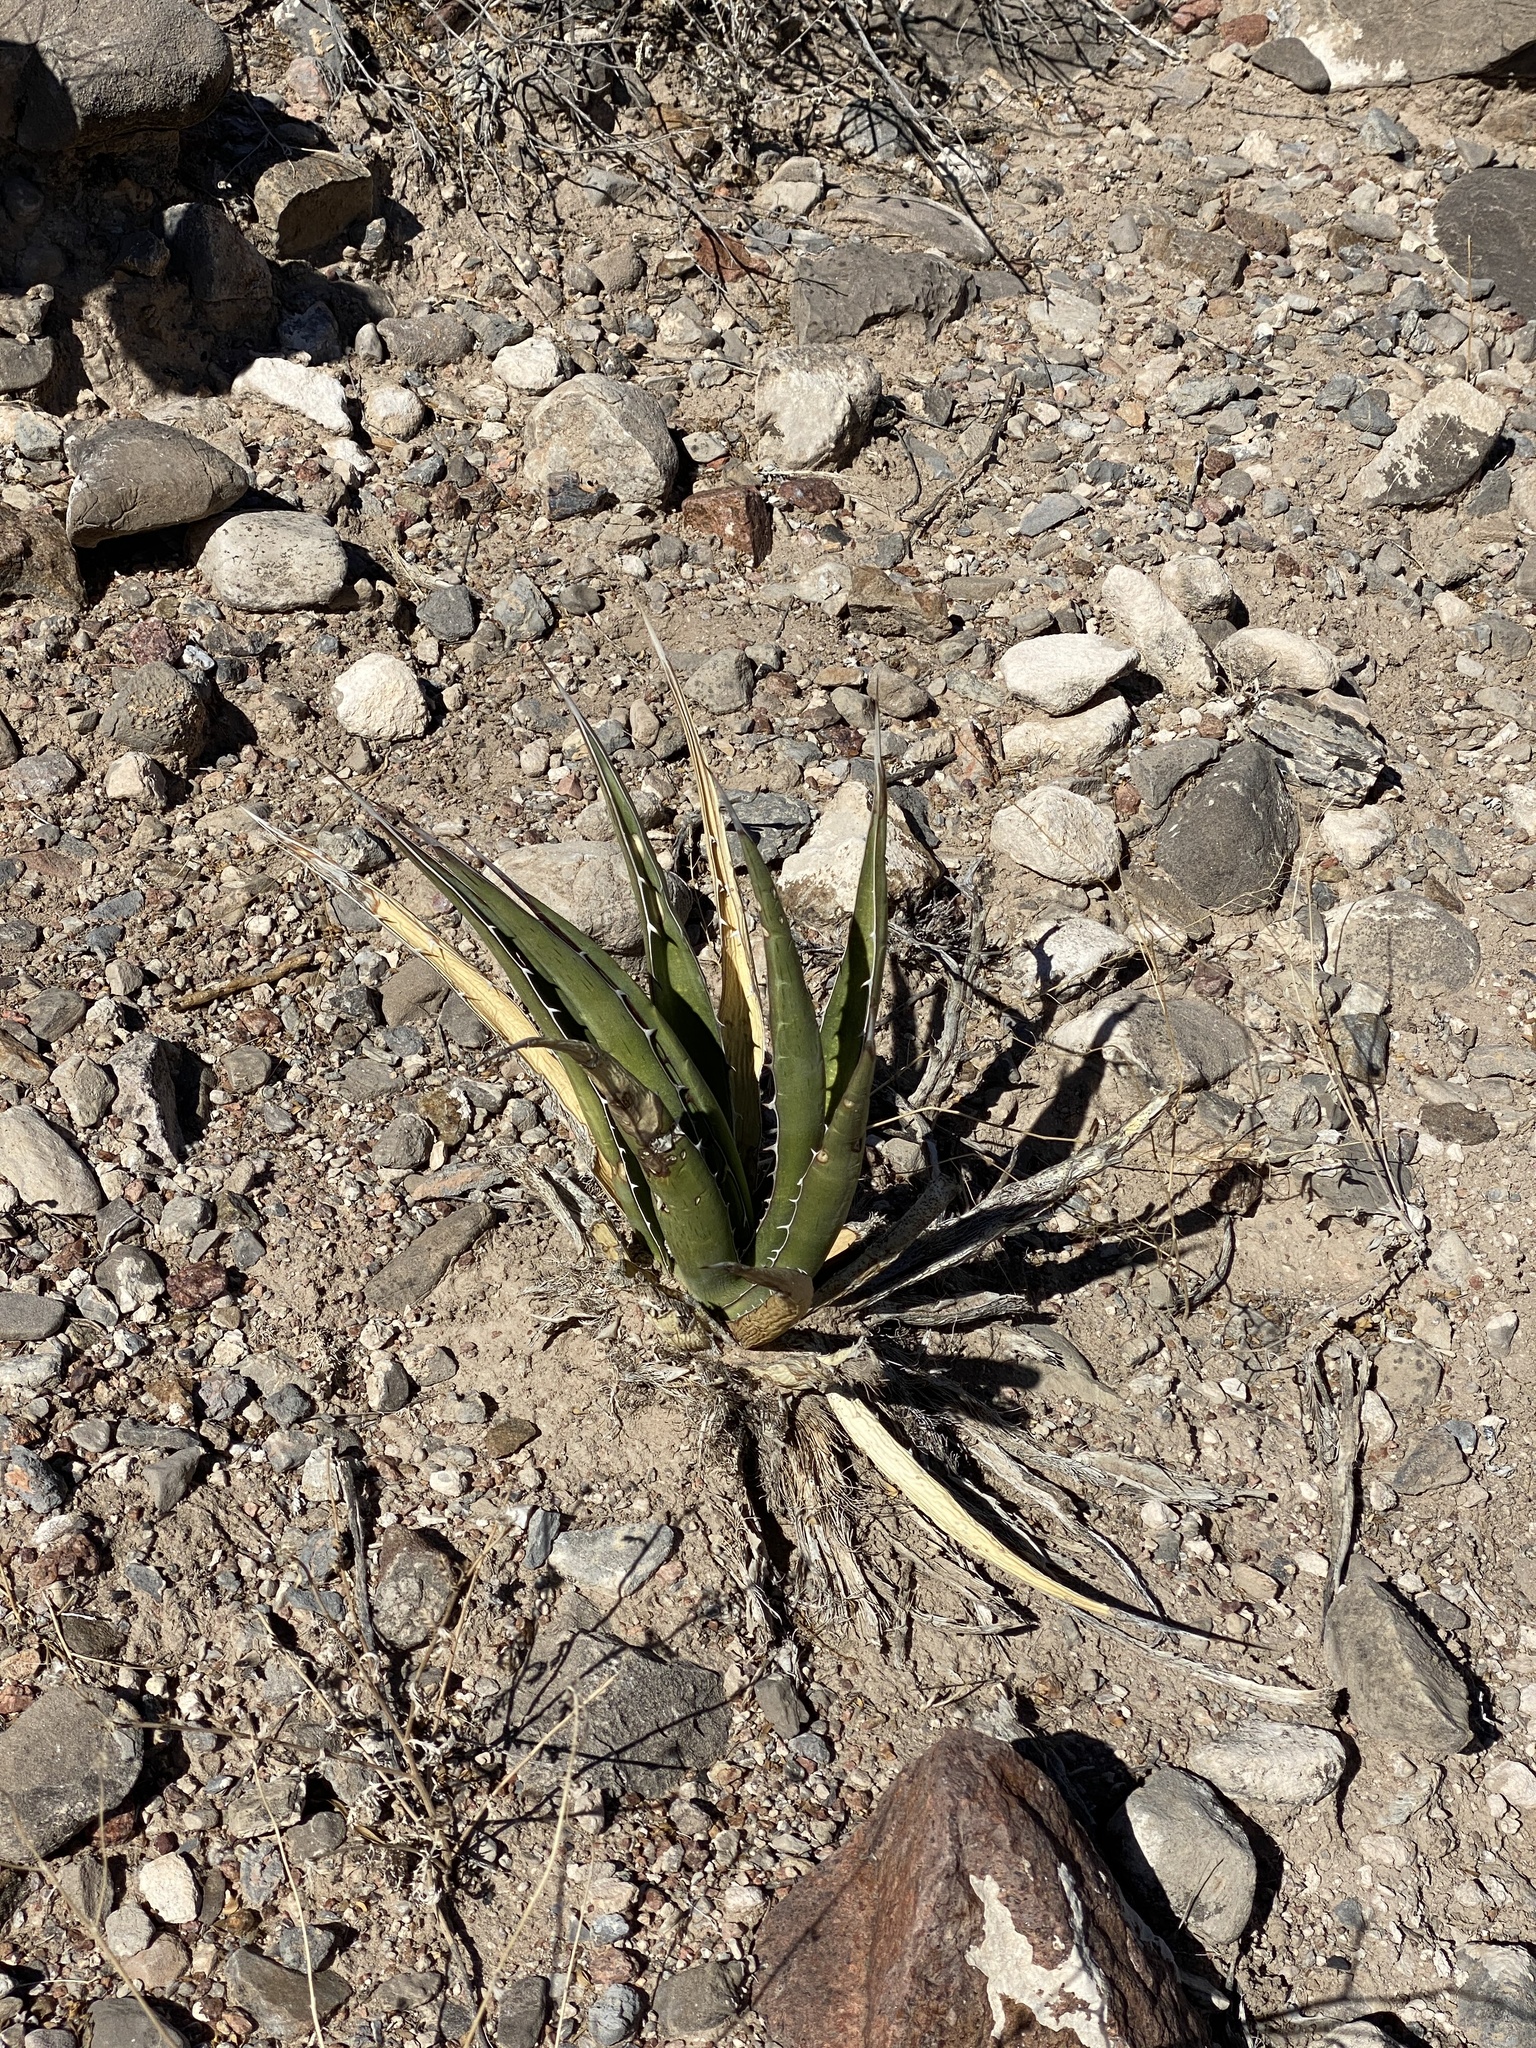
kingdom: Plantae
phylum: Tracheophyta
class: Liliopsida
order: Asparagales
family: Asparagaceae
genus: Agave
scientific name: Agave lechuguilla
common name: Lecheguilla agave
